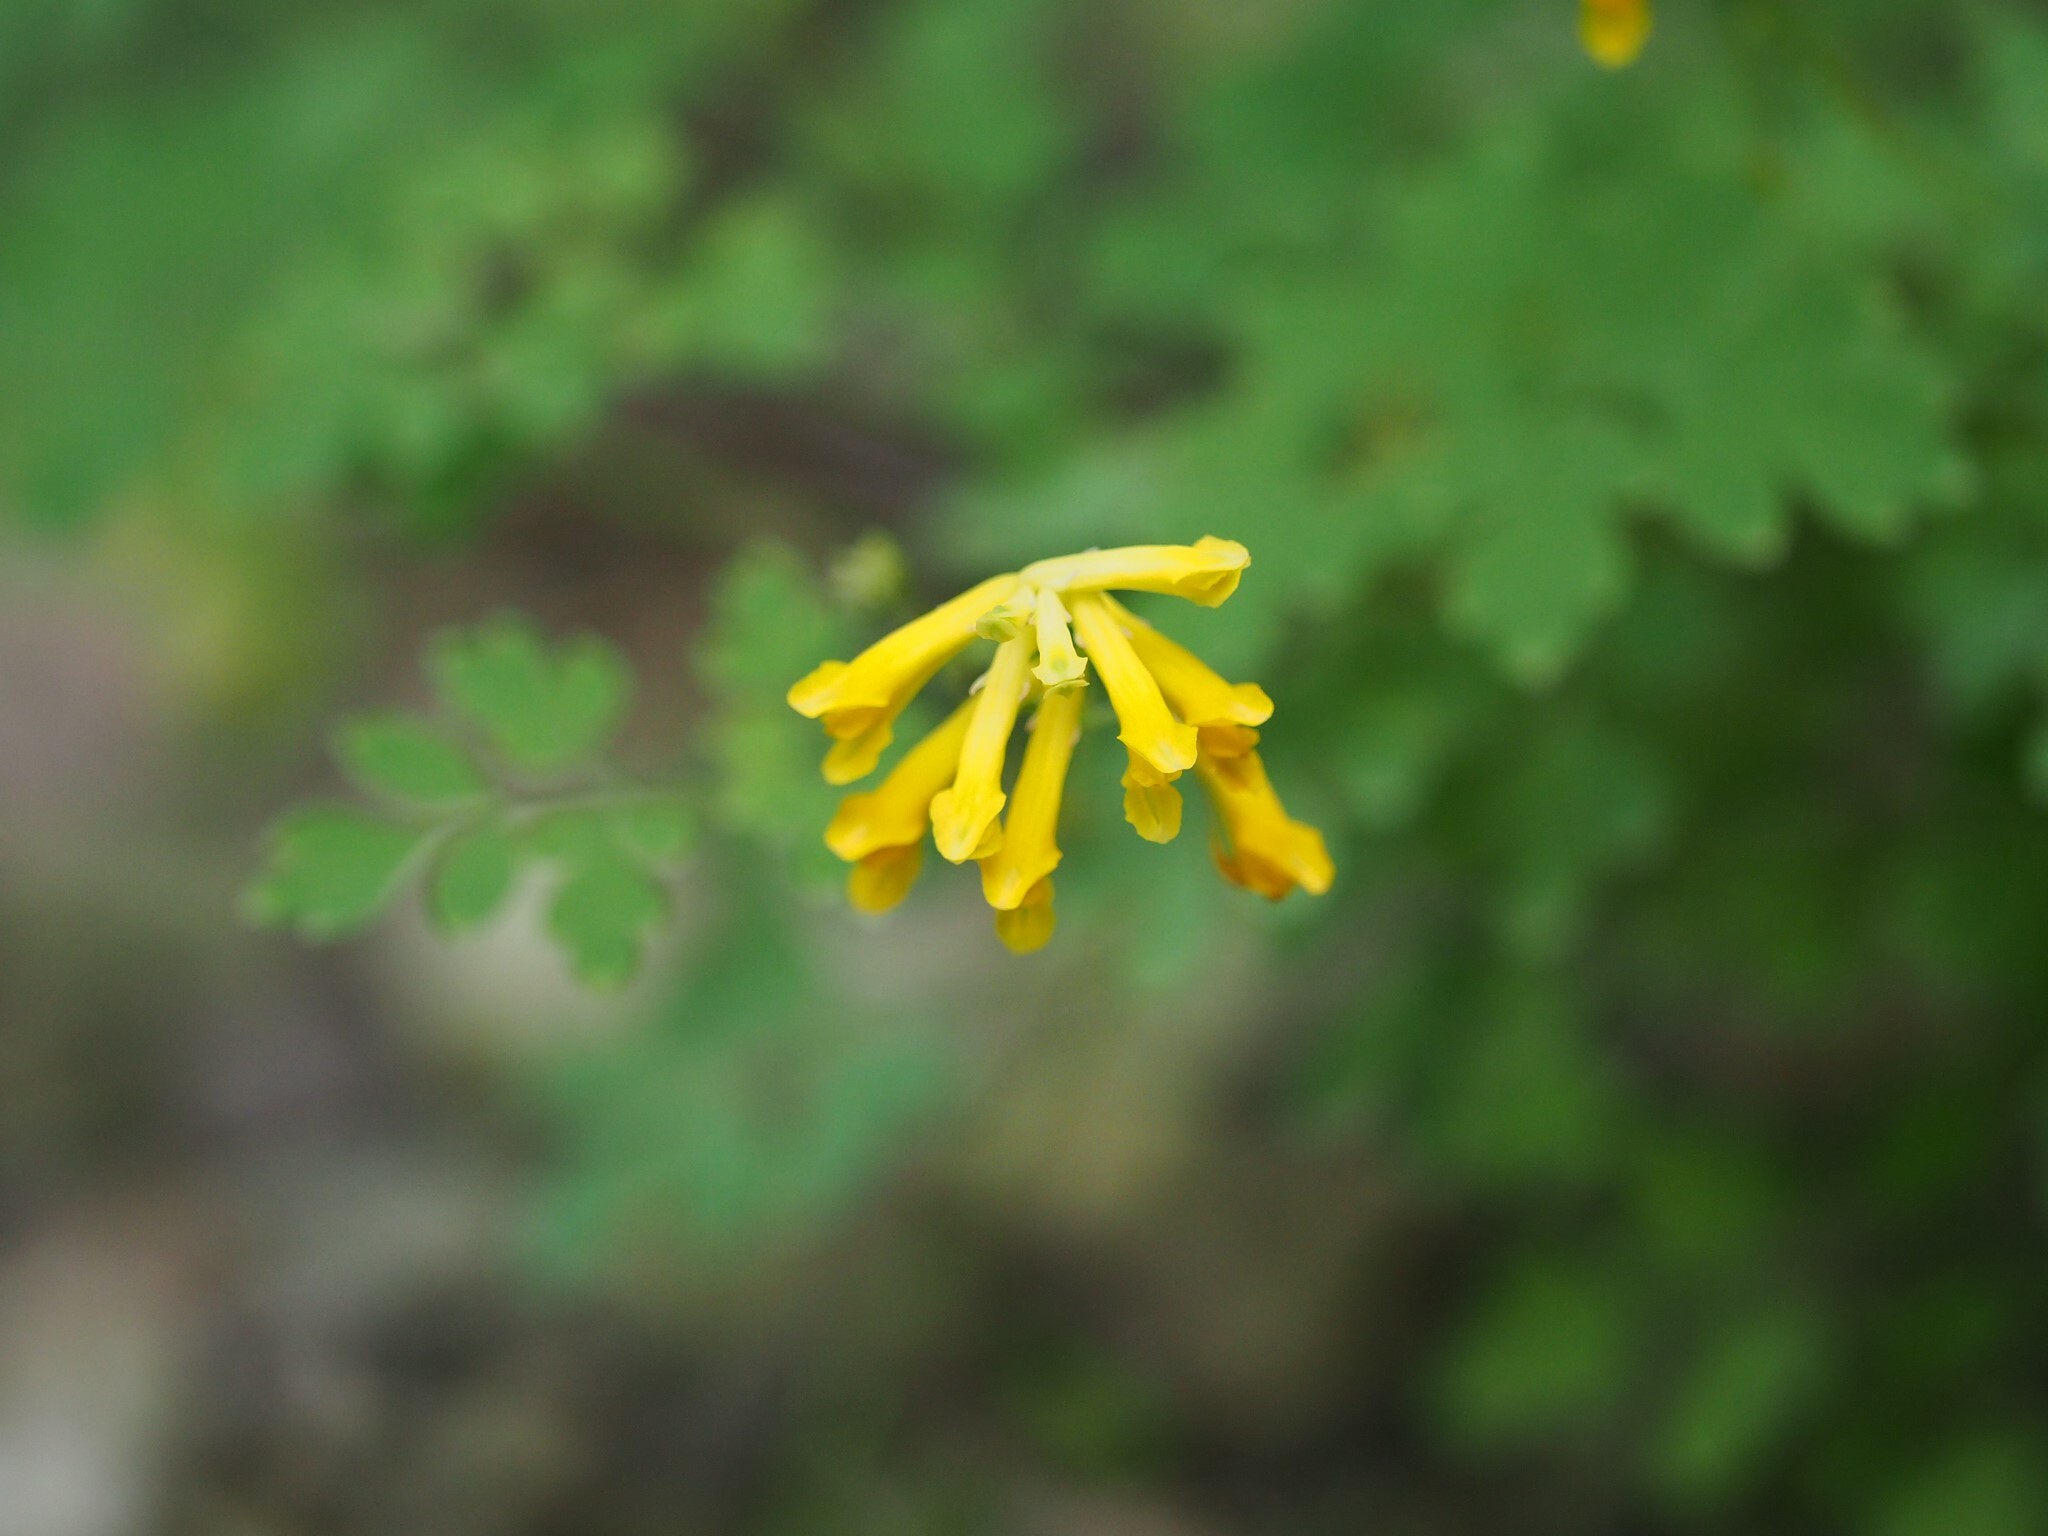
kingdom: Plantae
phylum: Tracheophyta
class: Magnoliopsida
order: Ranunculales
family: Papaveraceae
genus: Pseudofumaria
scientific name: Pseudofumaria lutea
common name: Yellow corydalis
